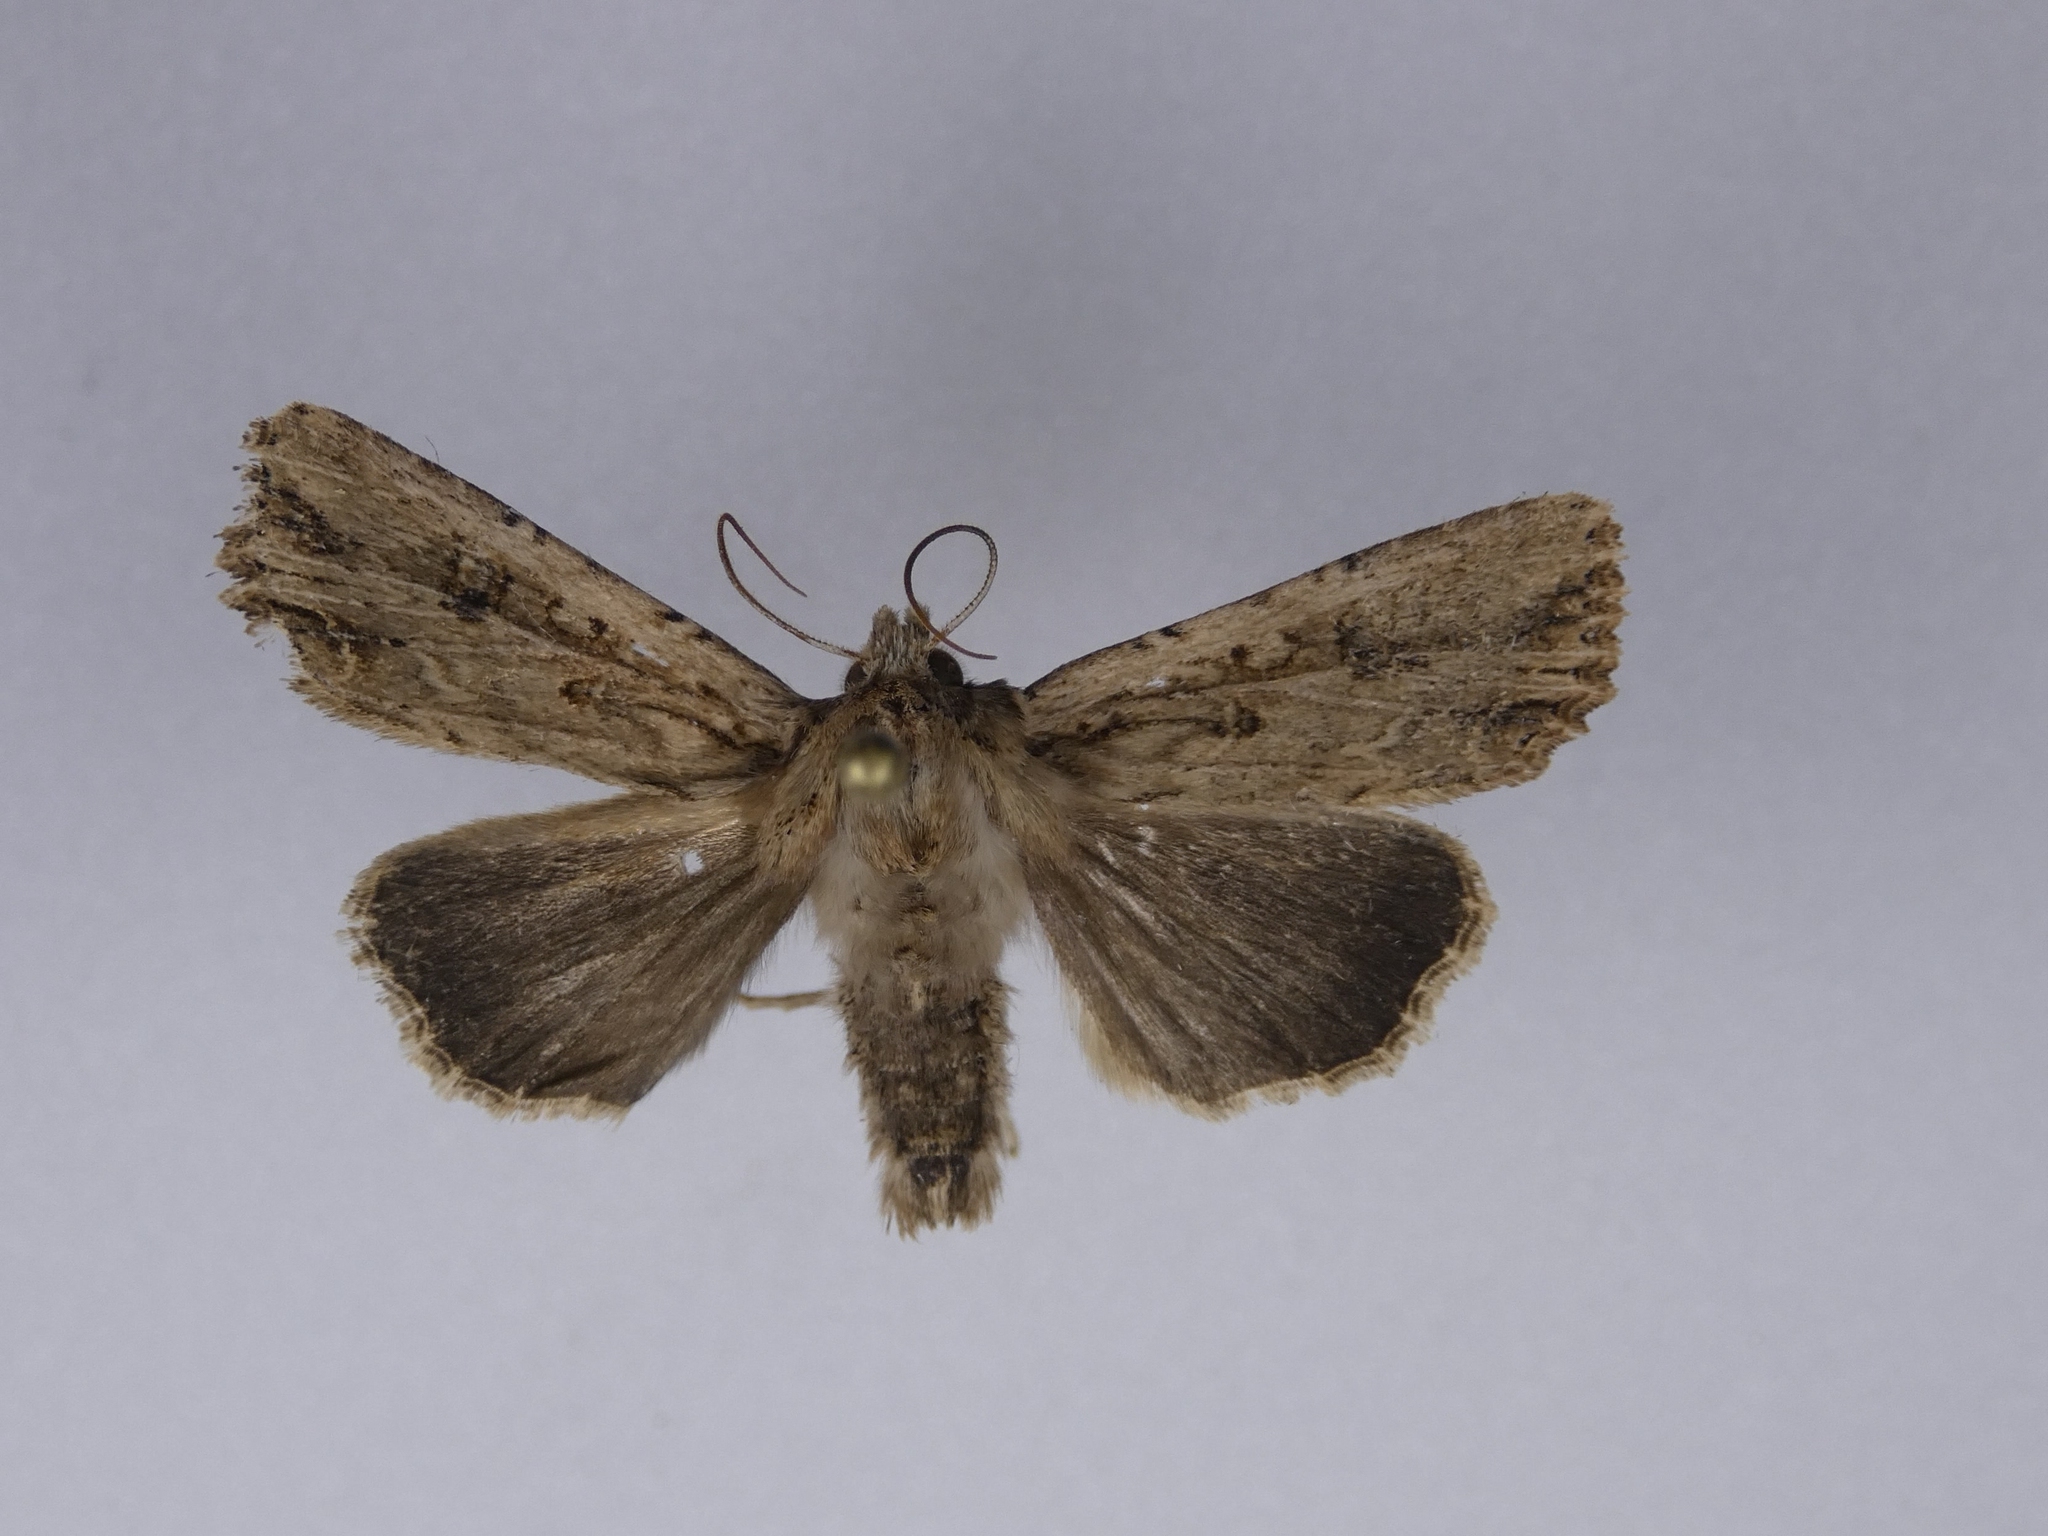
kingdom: Animalia
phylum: Arthropoda
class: Insecta
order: Lepidoptera
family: Noctuidae
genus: Ichneutica
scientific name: Ichneutica lignana
